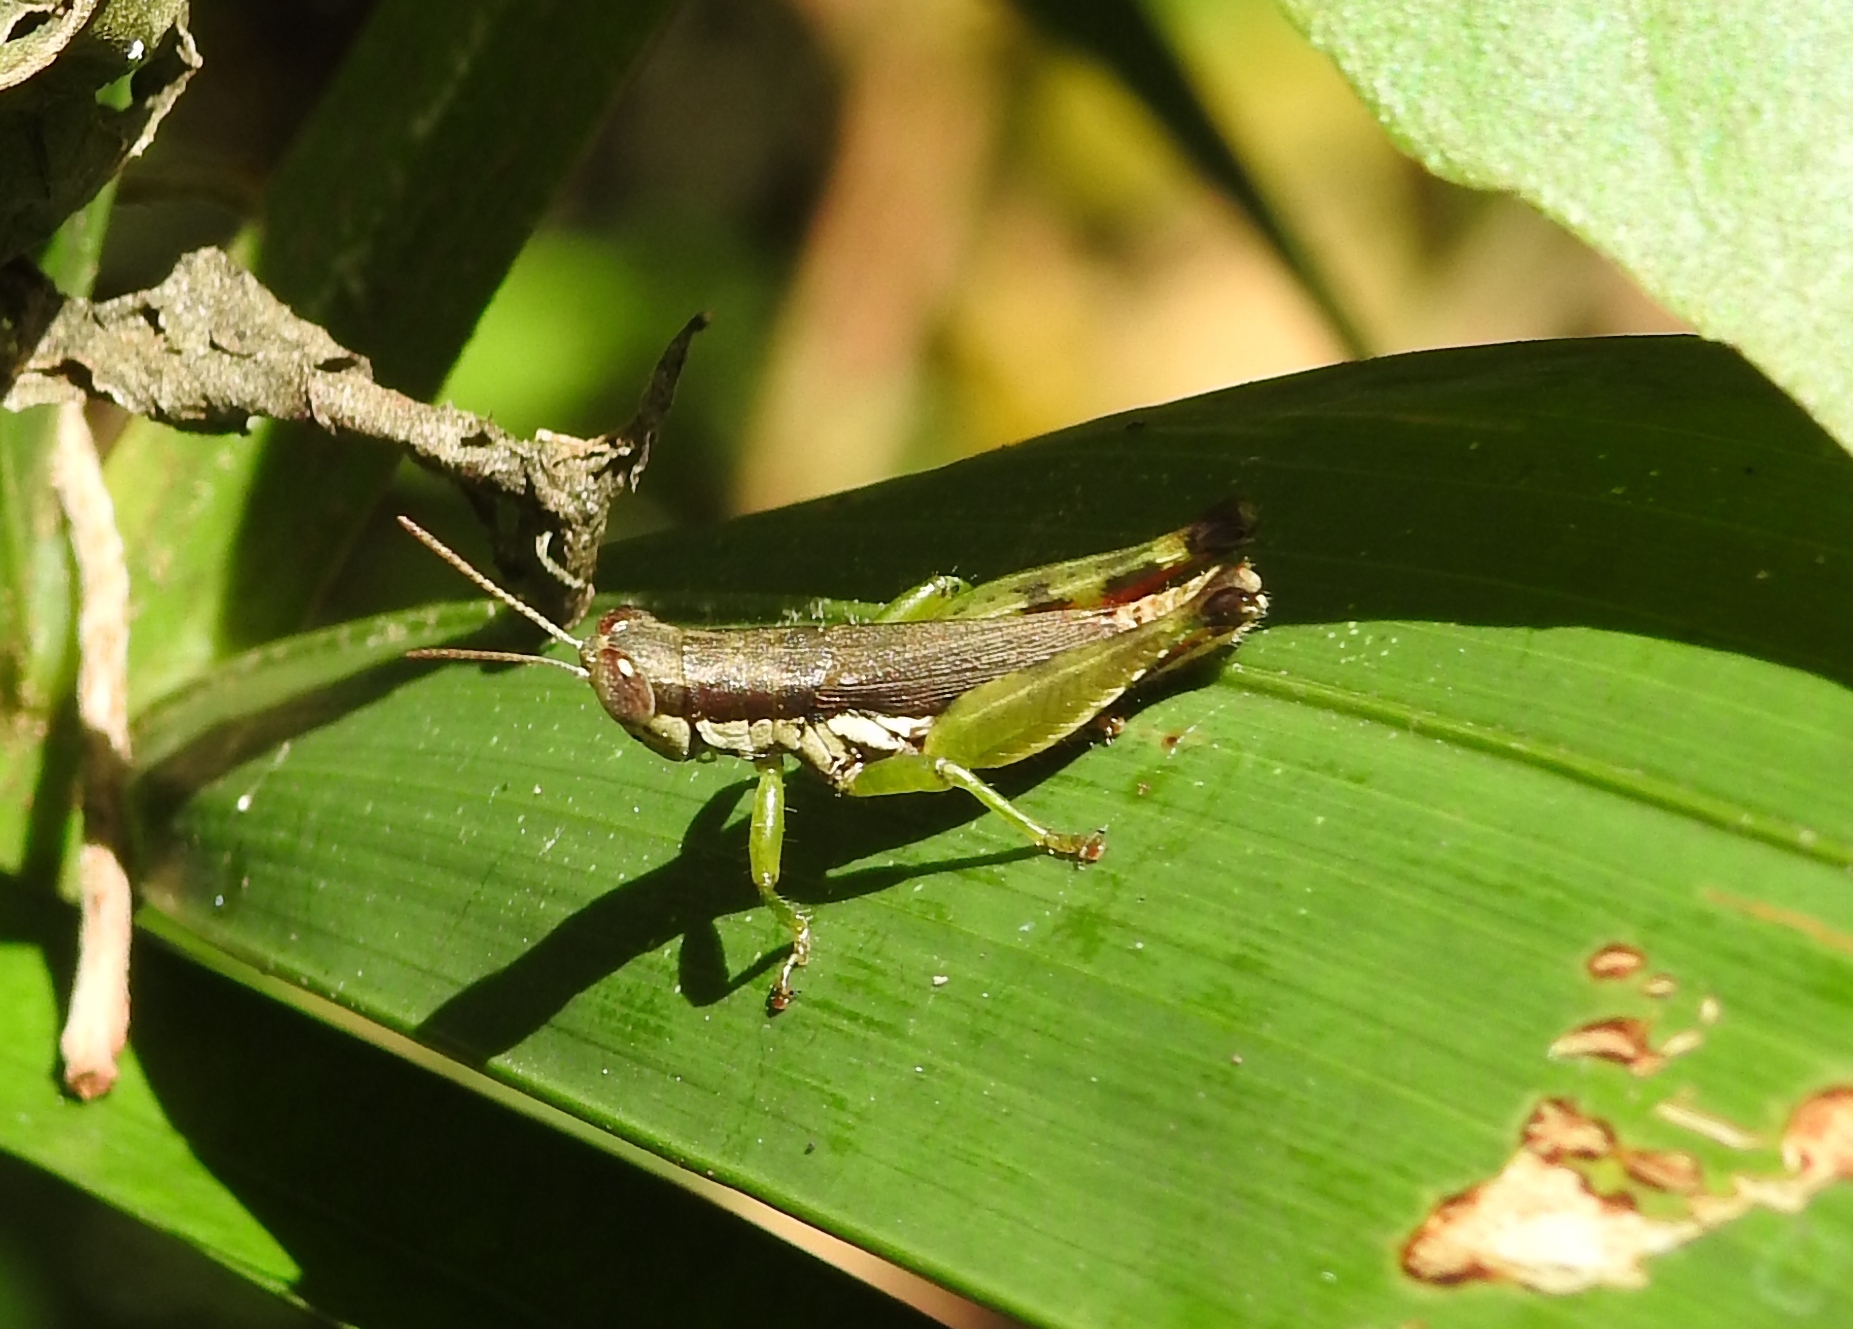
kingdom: Animalia
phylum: Arthropoda
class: Insecta
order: Orthoptera
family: Acrididae
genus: Pseudoxya
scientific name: Pseudoxya diminuta
